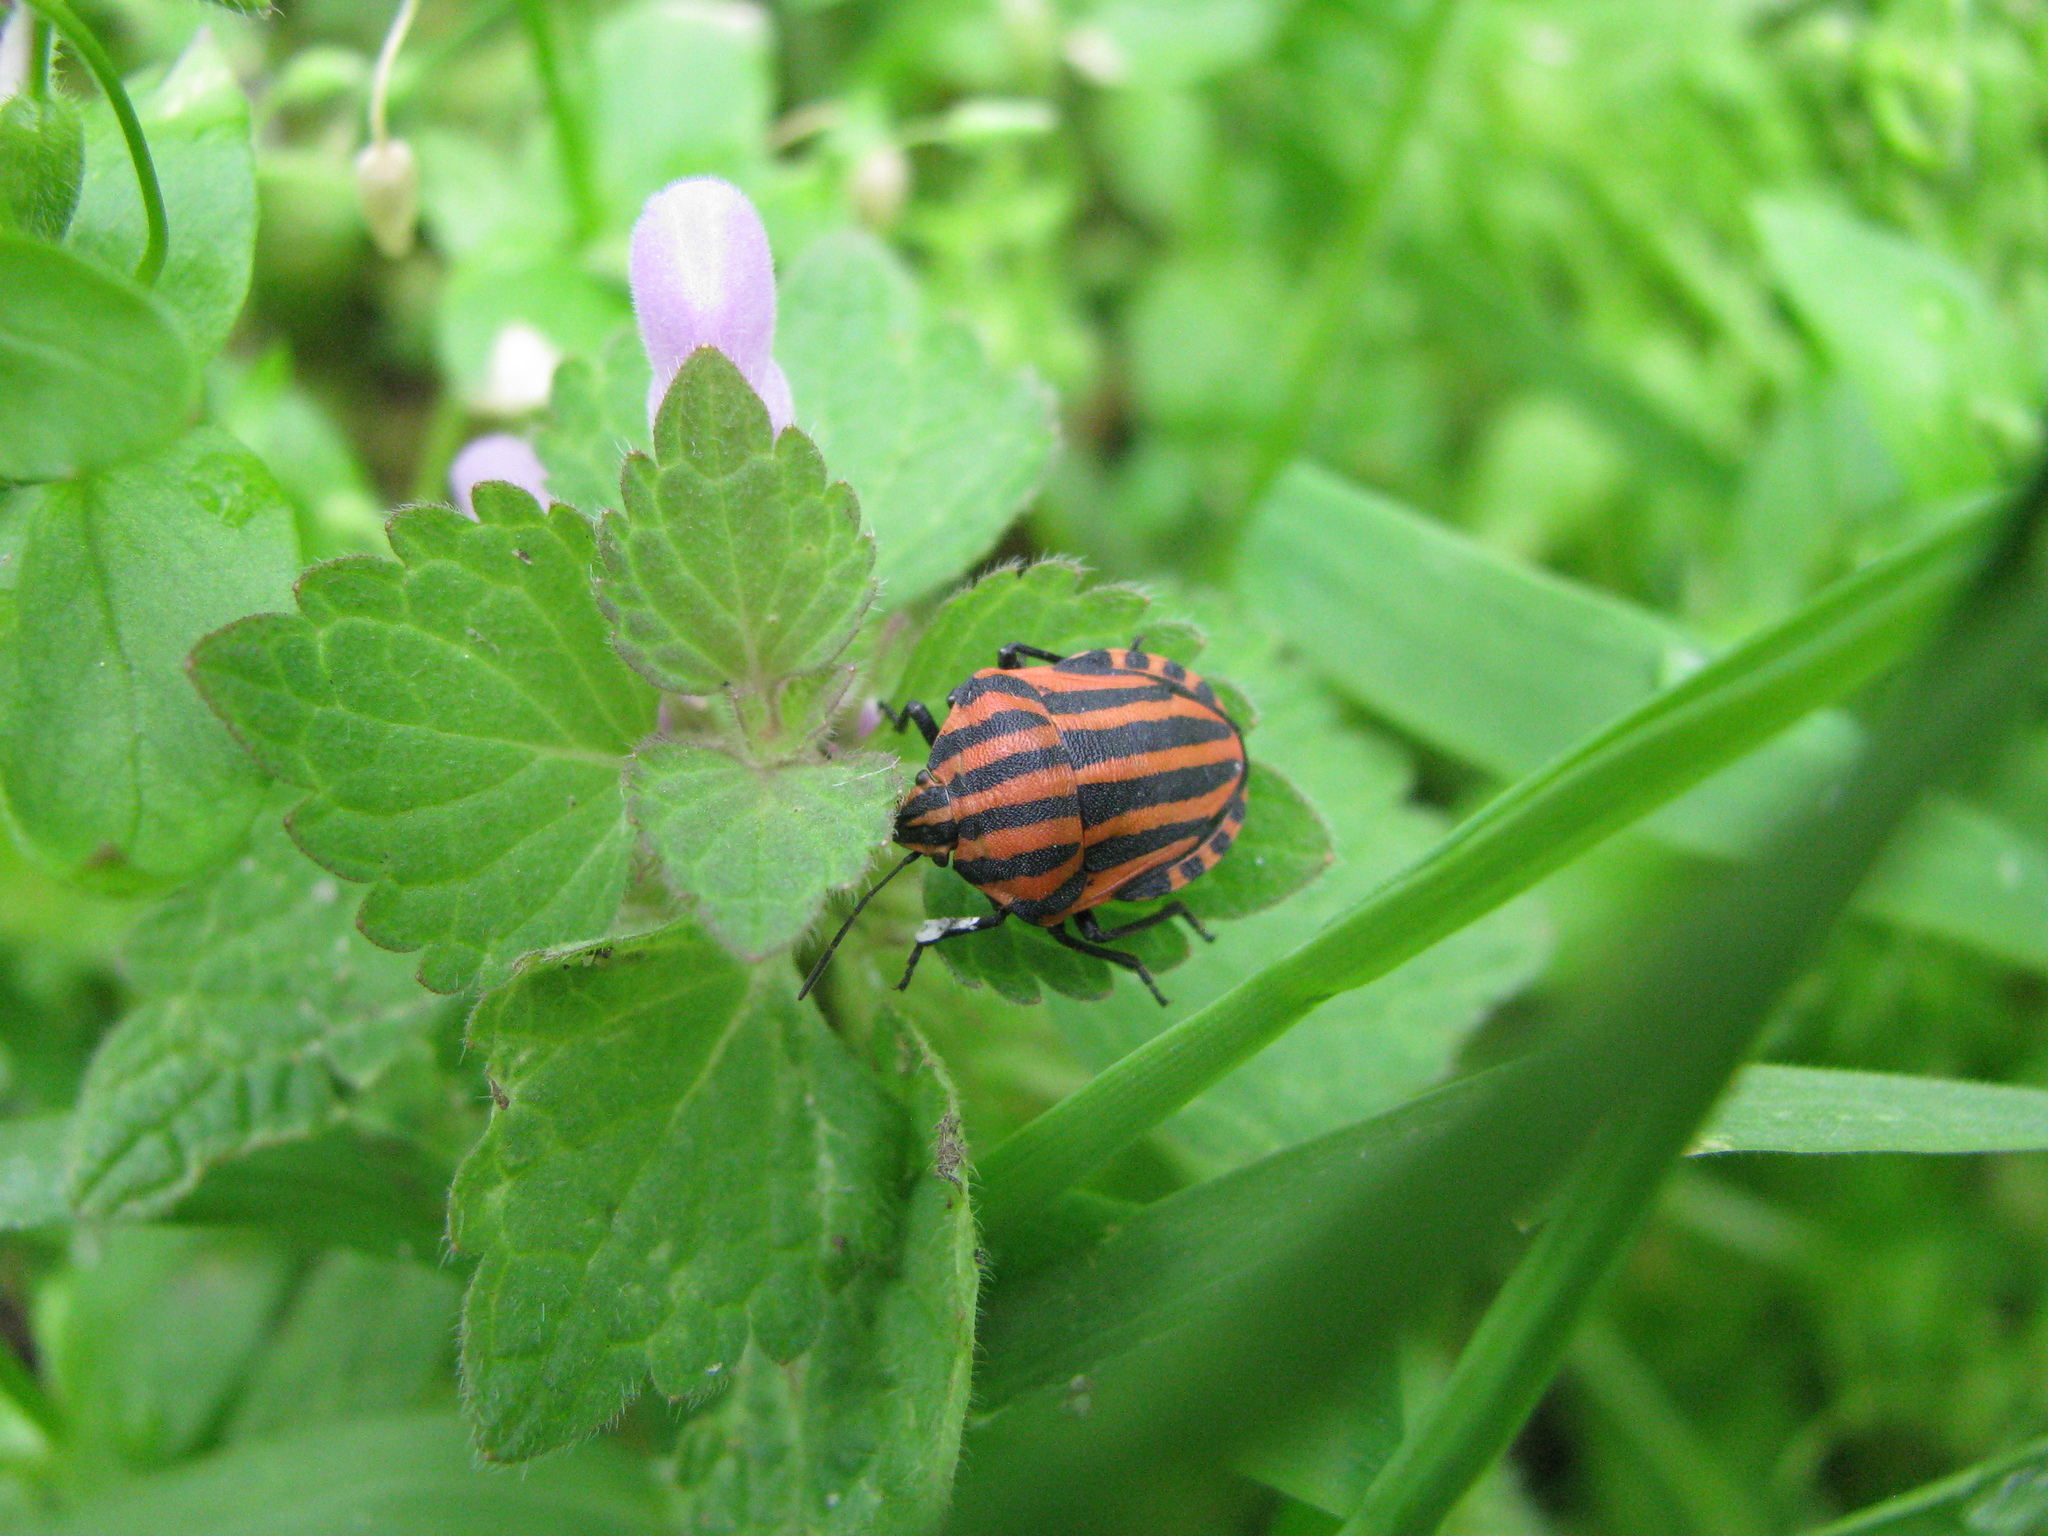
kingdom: Animalia
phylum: Arthropoda
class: Insecta
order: Hemiptera
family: Pentatomidae
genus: Graphosoma
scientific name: Graphosoma italicum
